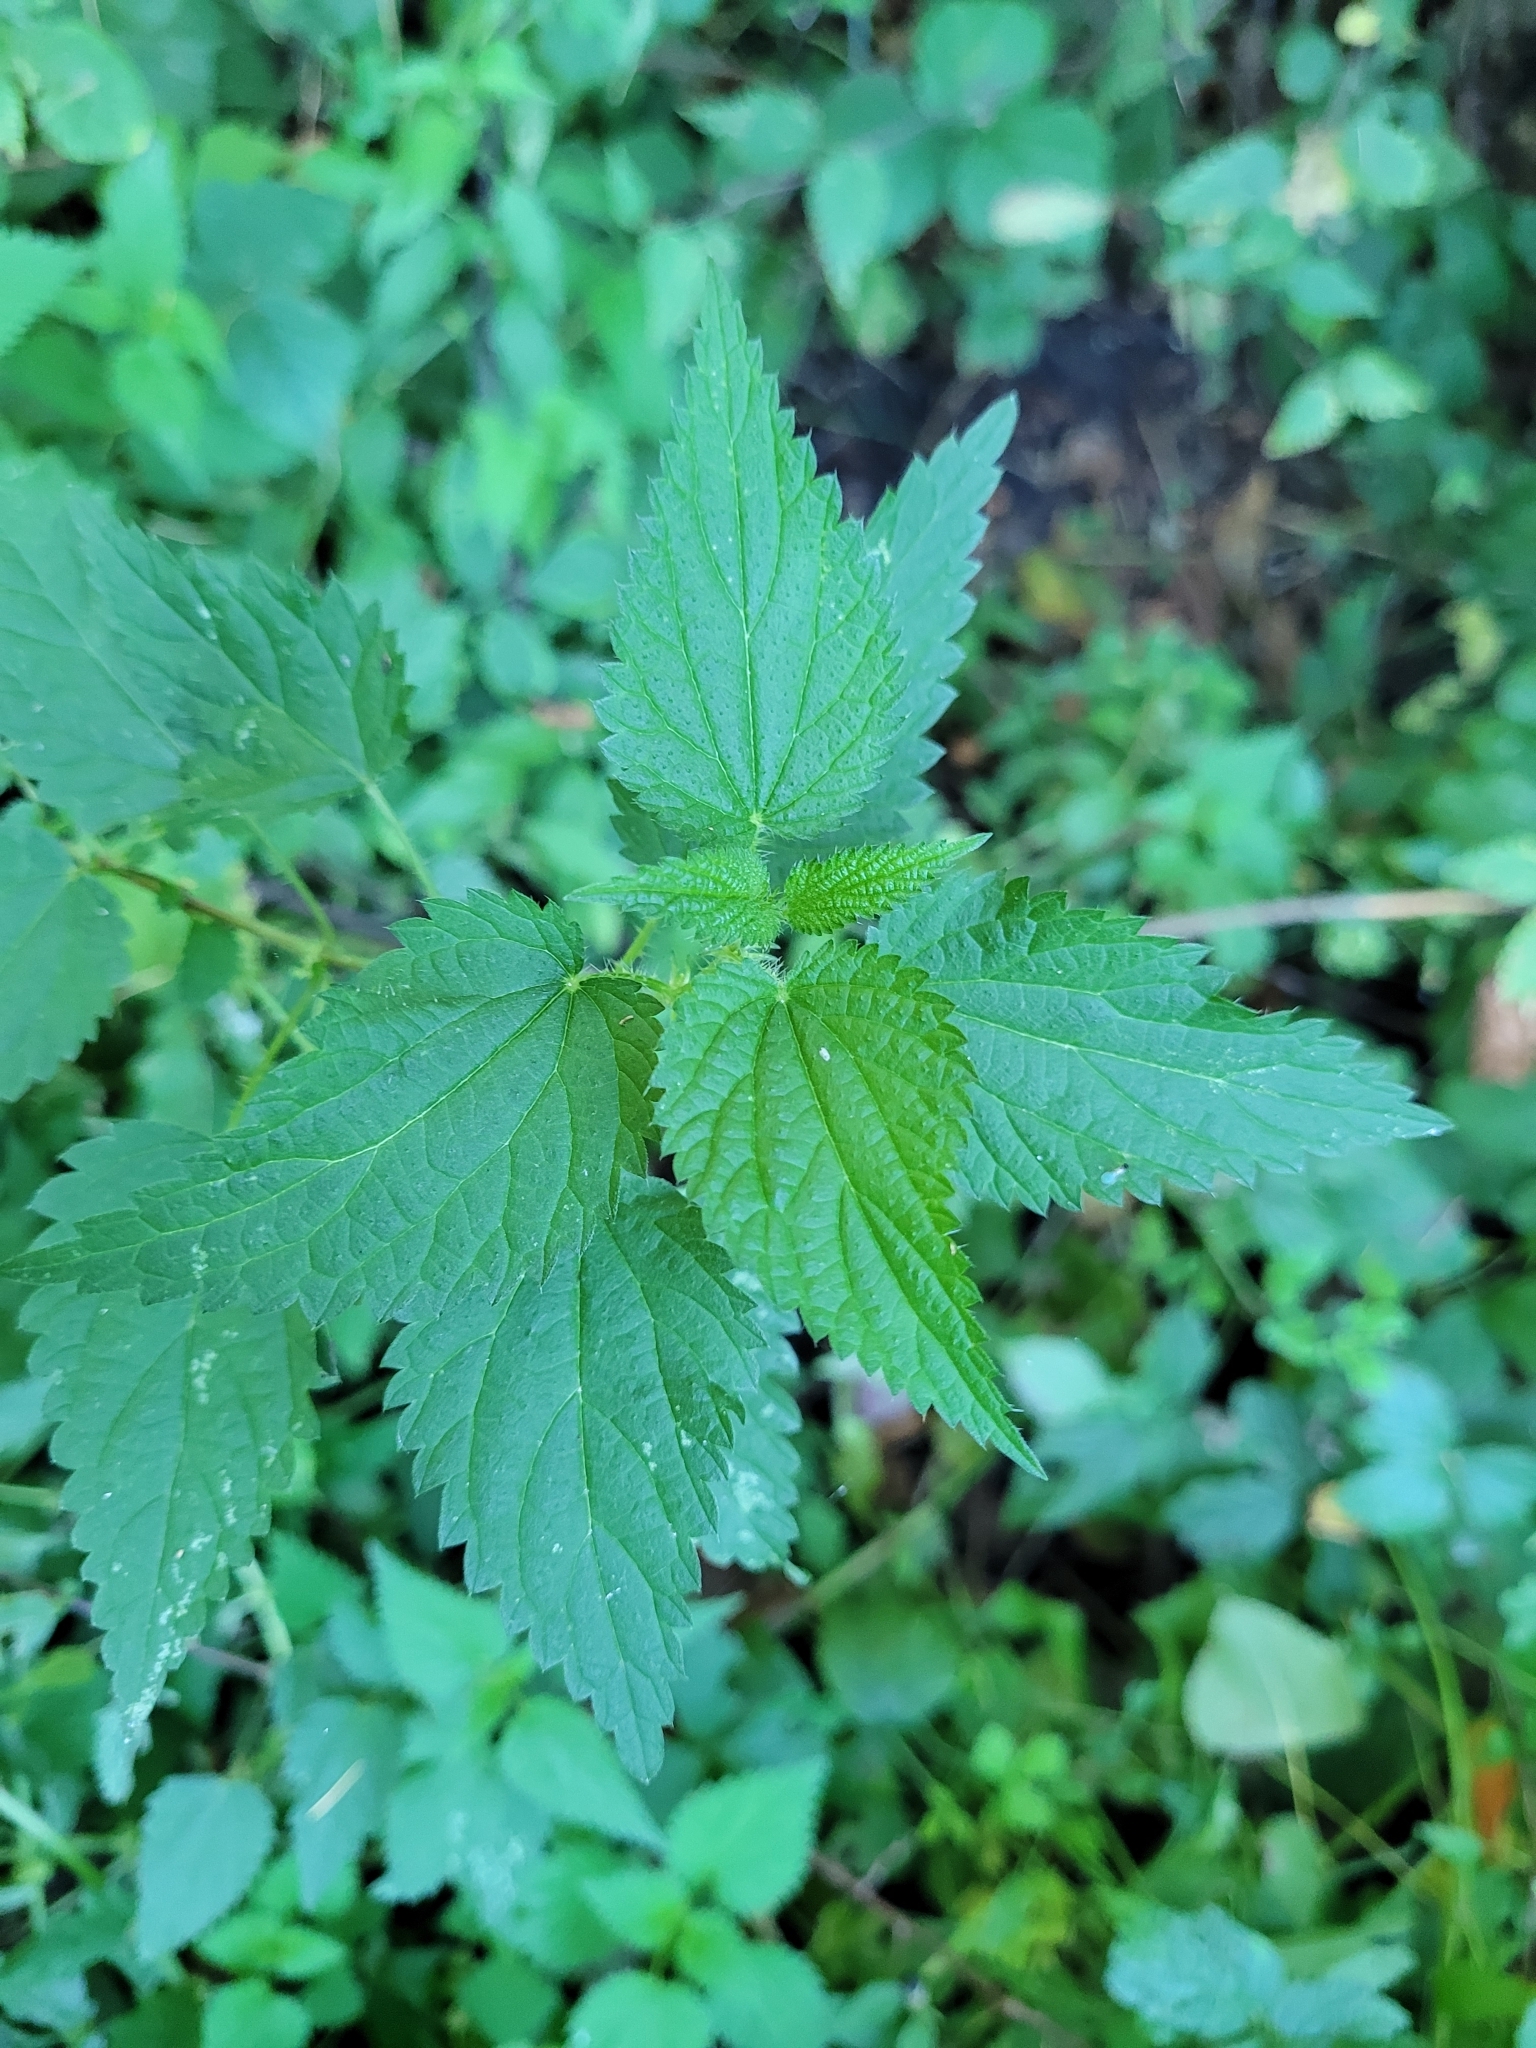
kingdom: Plantae
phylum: Tracheophyta
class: Magnoliopsida
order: Rosales
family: Urticaceae
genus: Urtica
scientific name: Urtica dioica
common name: Common nettle
